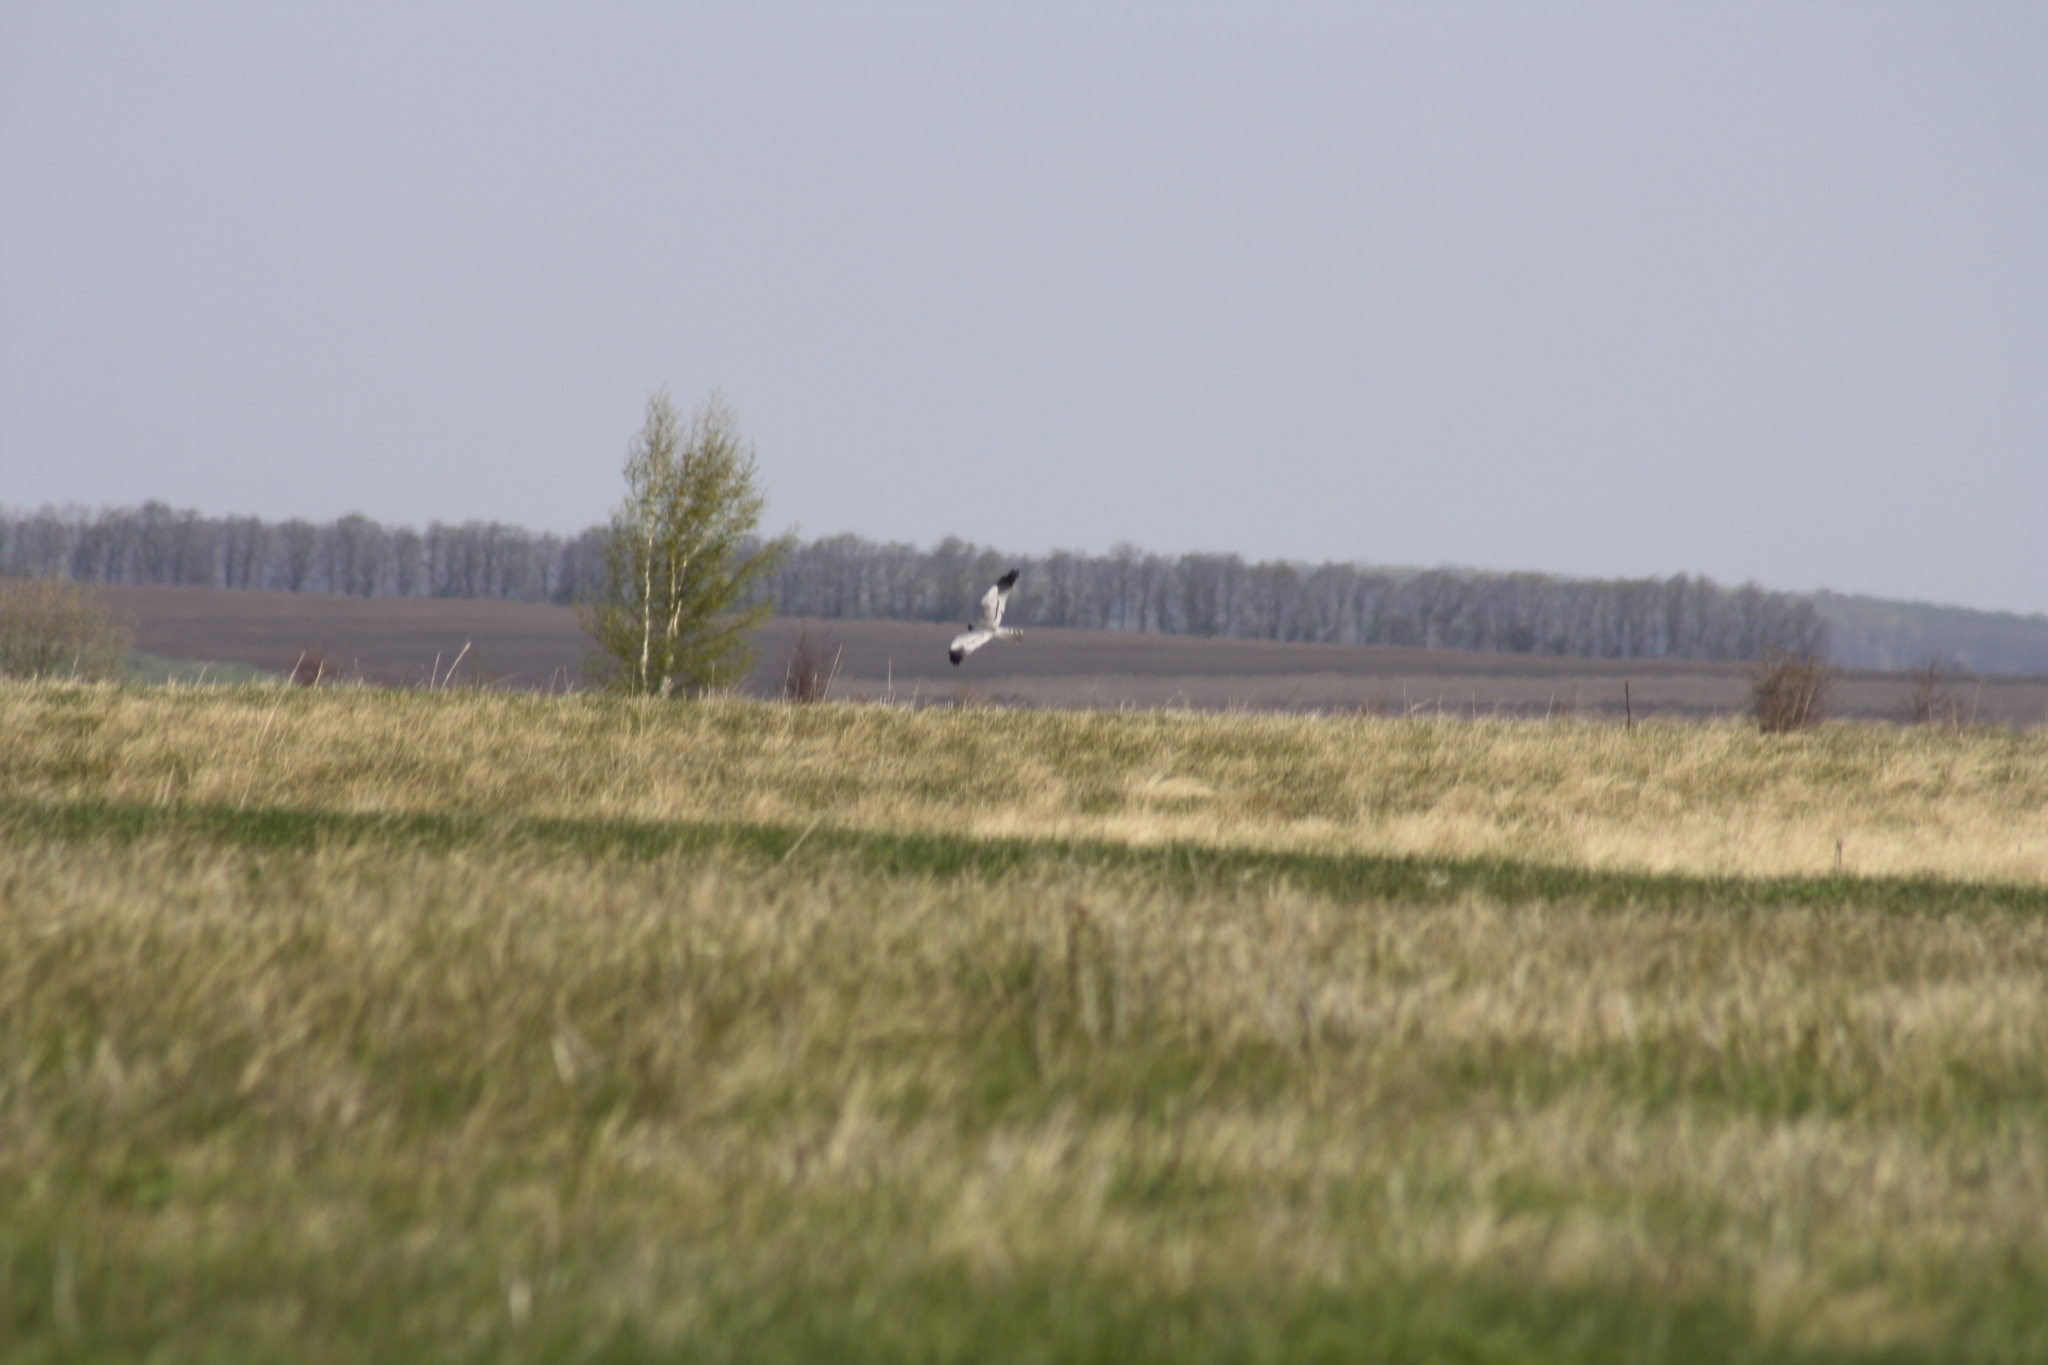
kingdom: Animalia
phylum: Chordata
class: Aves
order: Accipitriformes
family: Accipitridae
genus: Circus
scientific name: Circus pygargus
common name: Montagu's harrier
